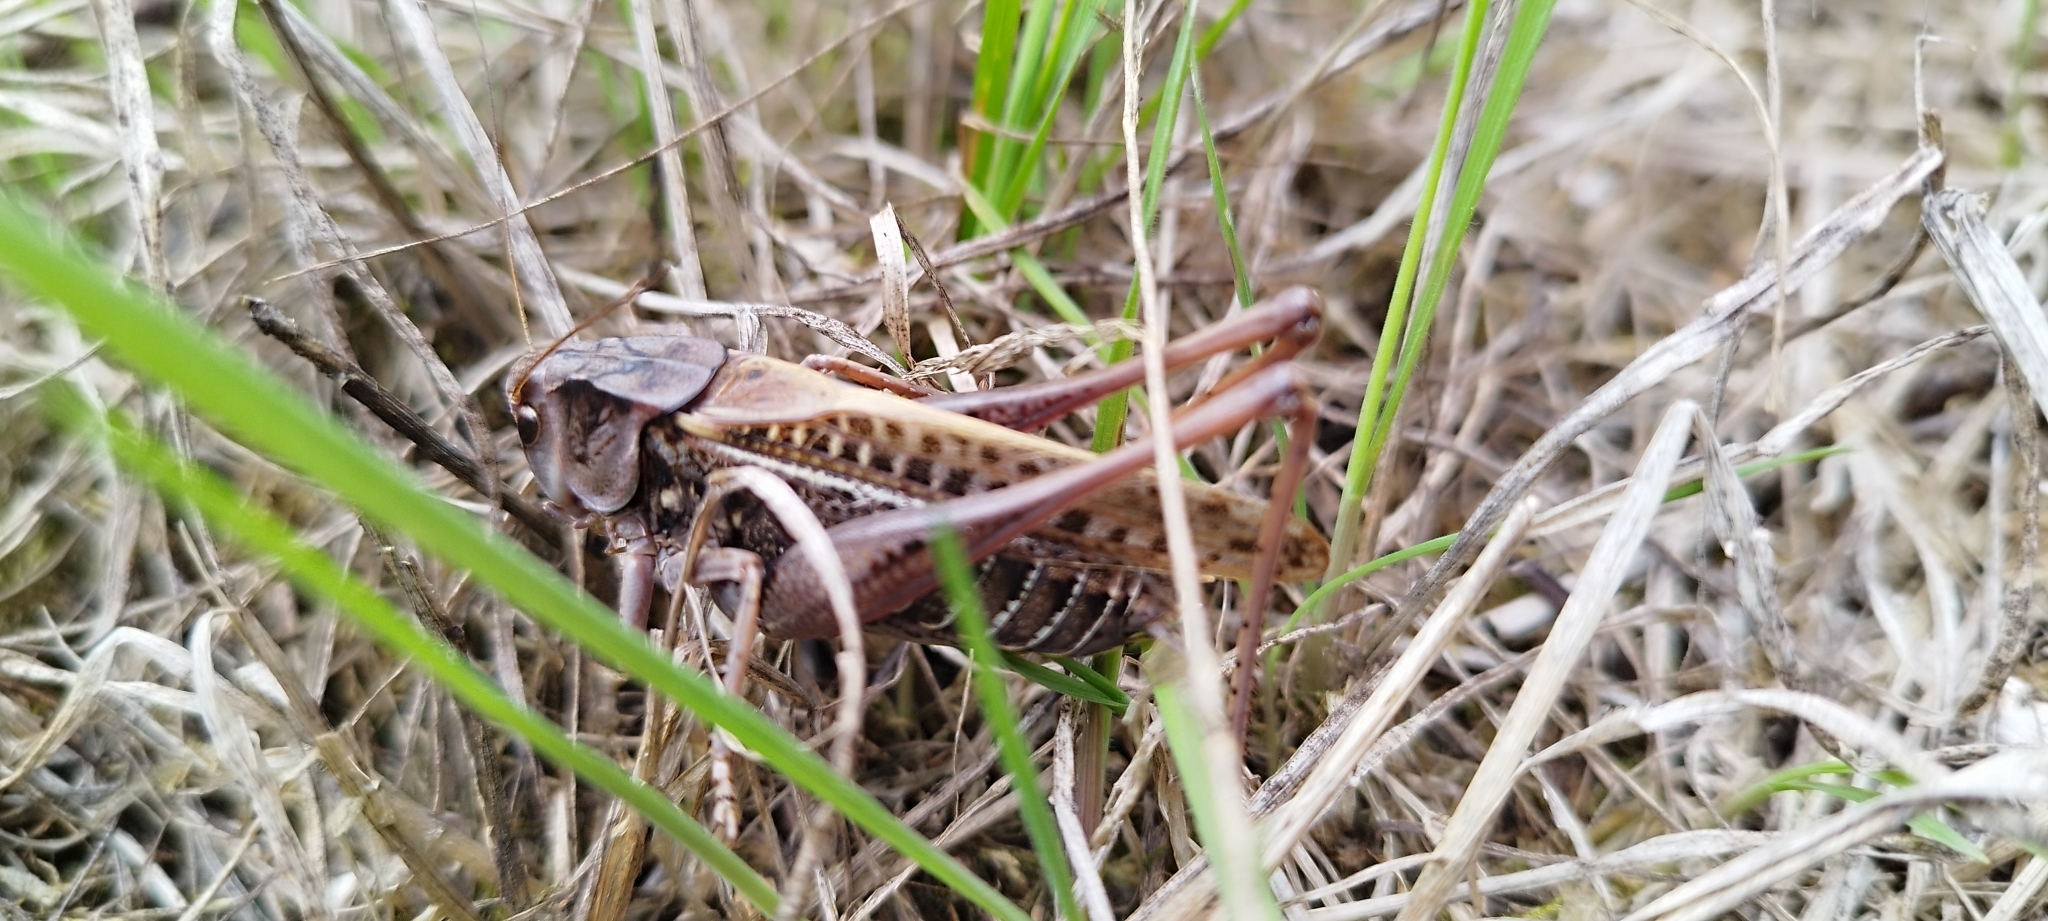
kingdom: Animalia
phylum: Arthropoda
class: Insecta
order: Orthoptera
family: Tettigoniidae
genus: Decticus
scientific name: Decticus verrucivorus
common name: Wart-biter
